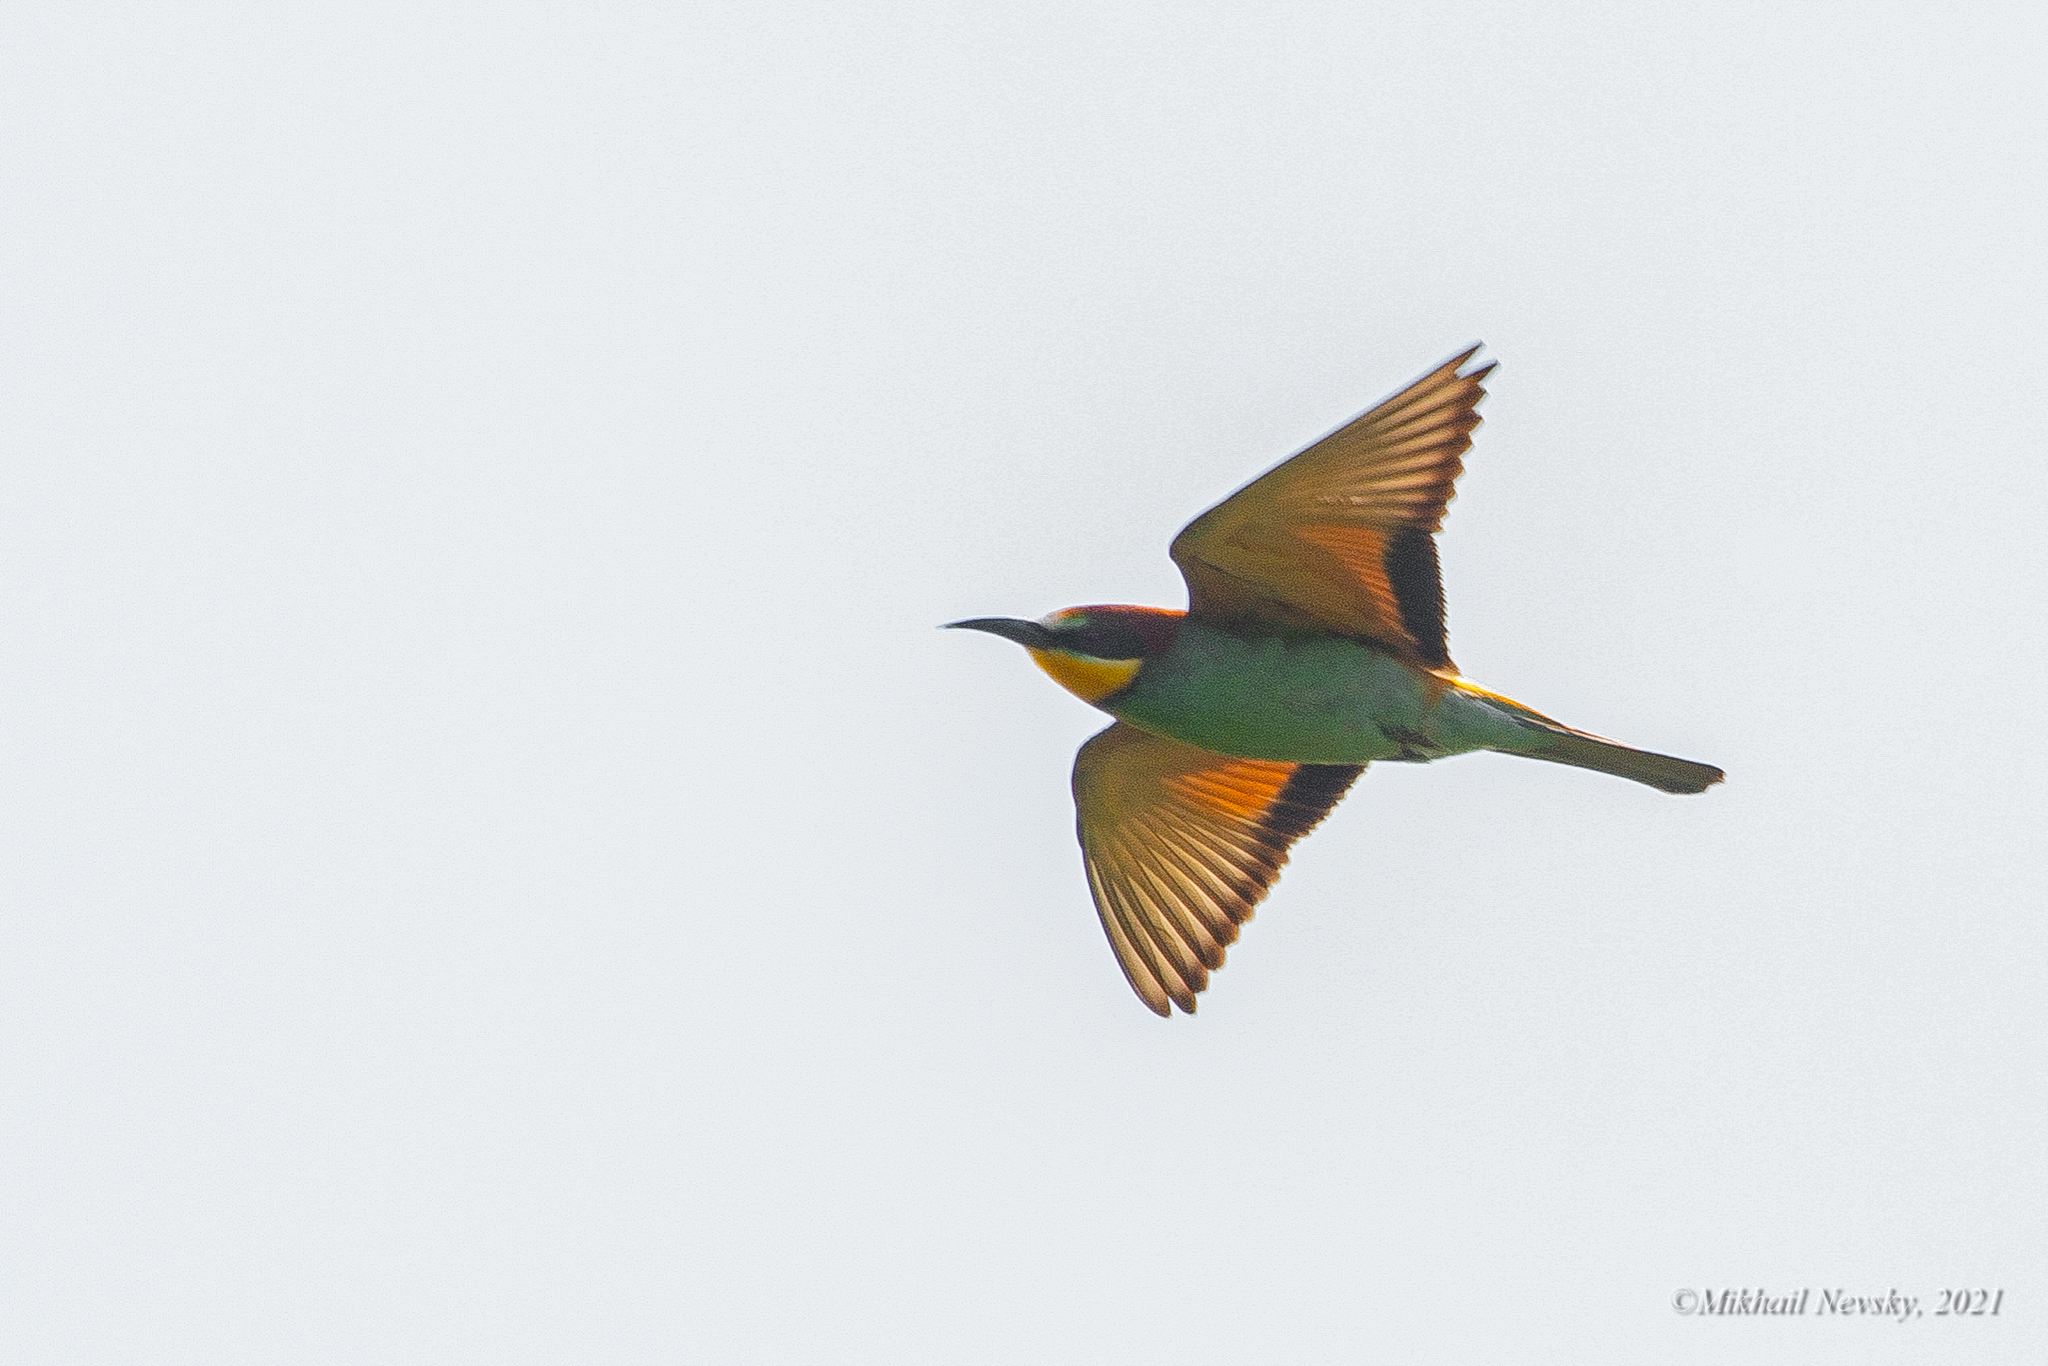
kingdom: Animalia
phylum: Chordata
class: Aves
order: Coraciiformes
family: Meropidae
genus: Merops
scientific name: Merops apiaster
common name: European bee-eater
